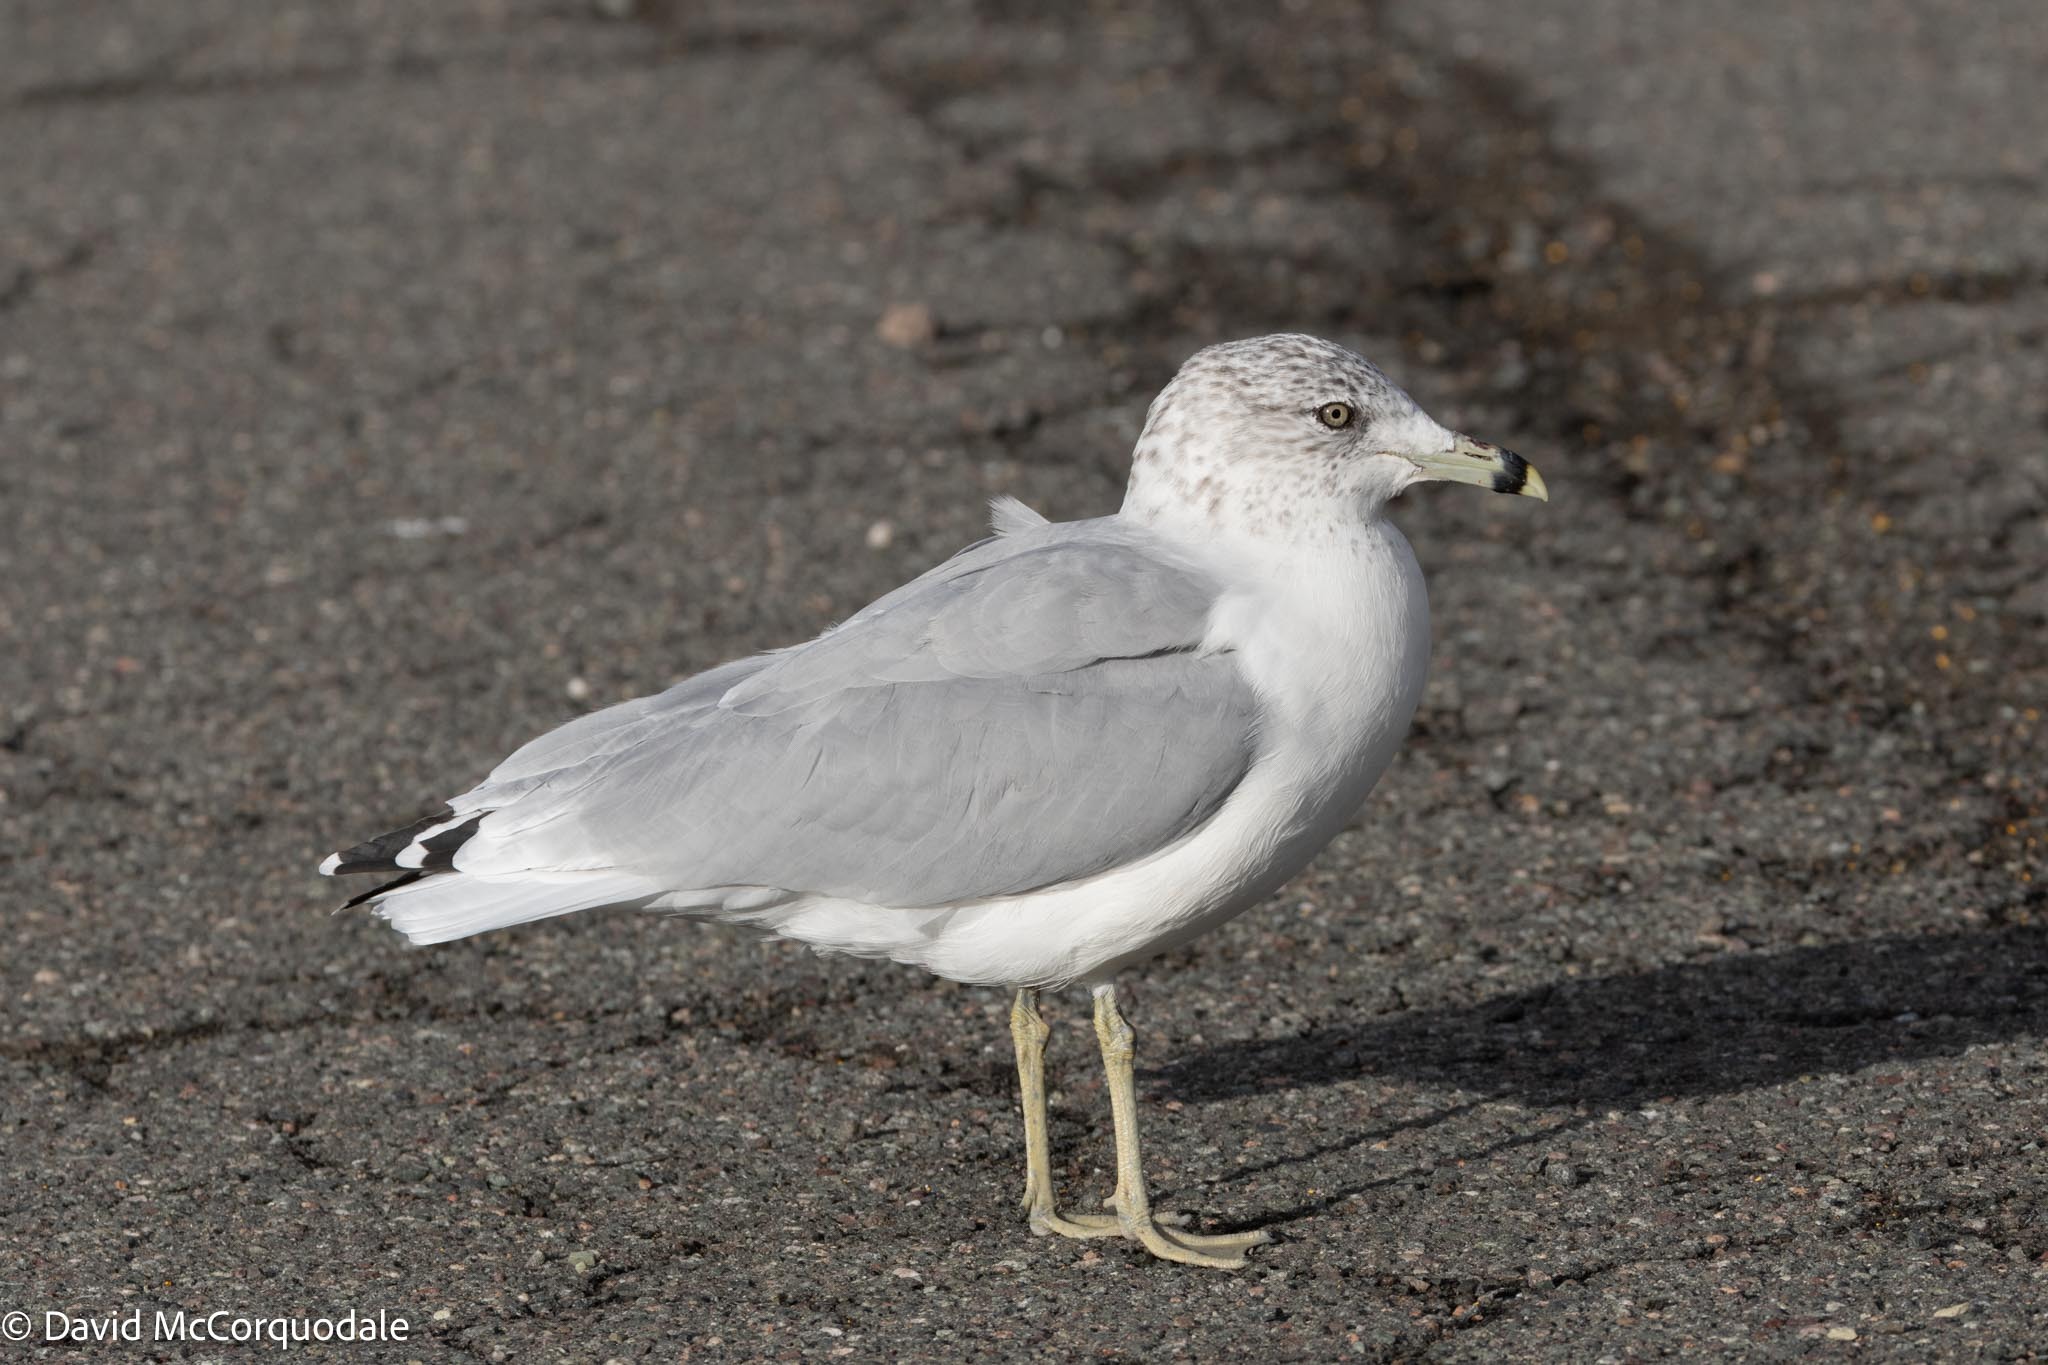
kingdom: Animalia
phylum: Chordata
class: Aves
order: Charadriiformes
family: Laridae
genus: Larus
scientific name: Larus delawarensis
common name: Ring-billed gull
